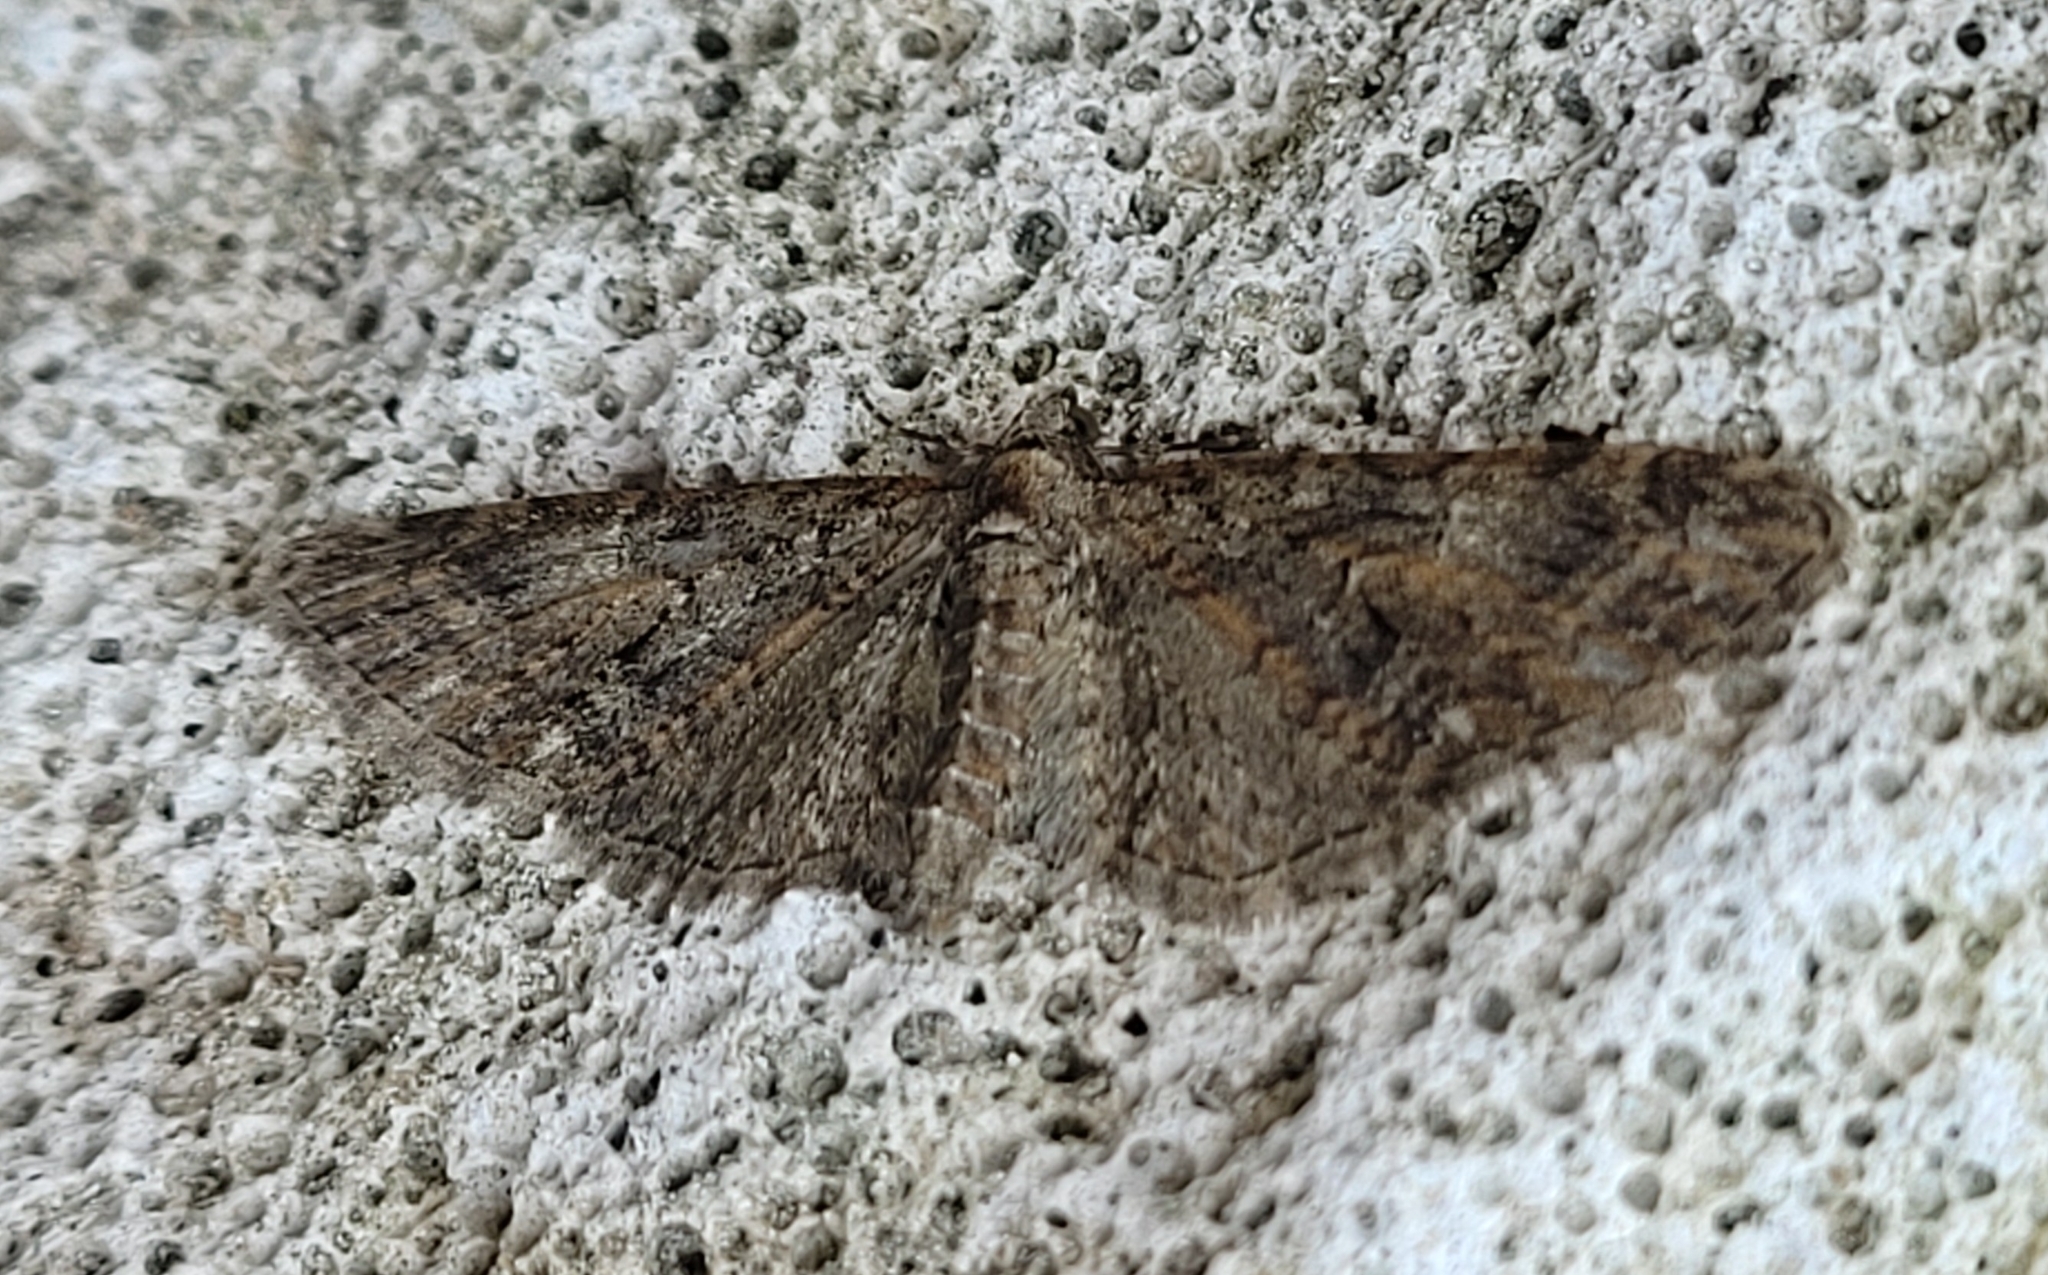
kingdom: Animalia
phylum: Arthropoda
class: Insecta
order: Lepidoptera
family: Geometridae
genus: Eupithecia
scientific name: Eupithecia abbreviata
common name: Brindled pug
